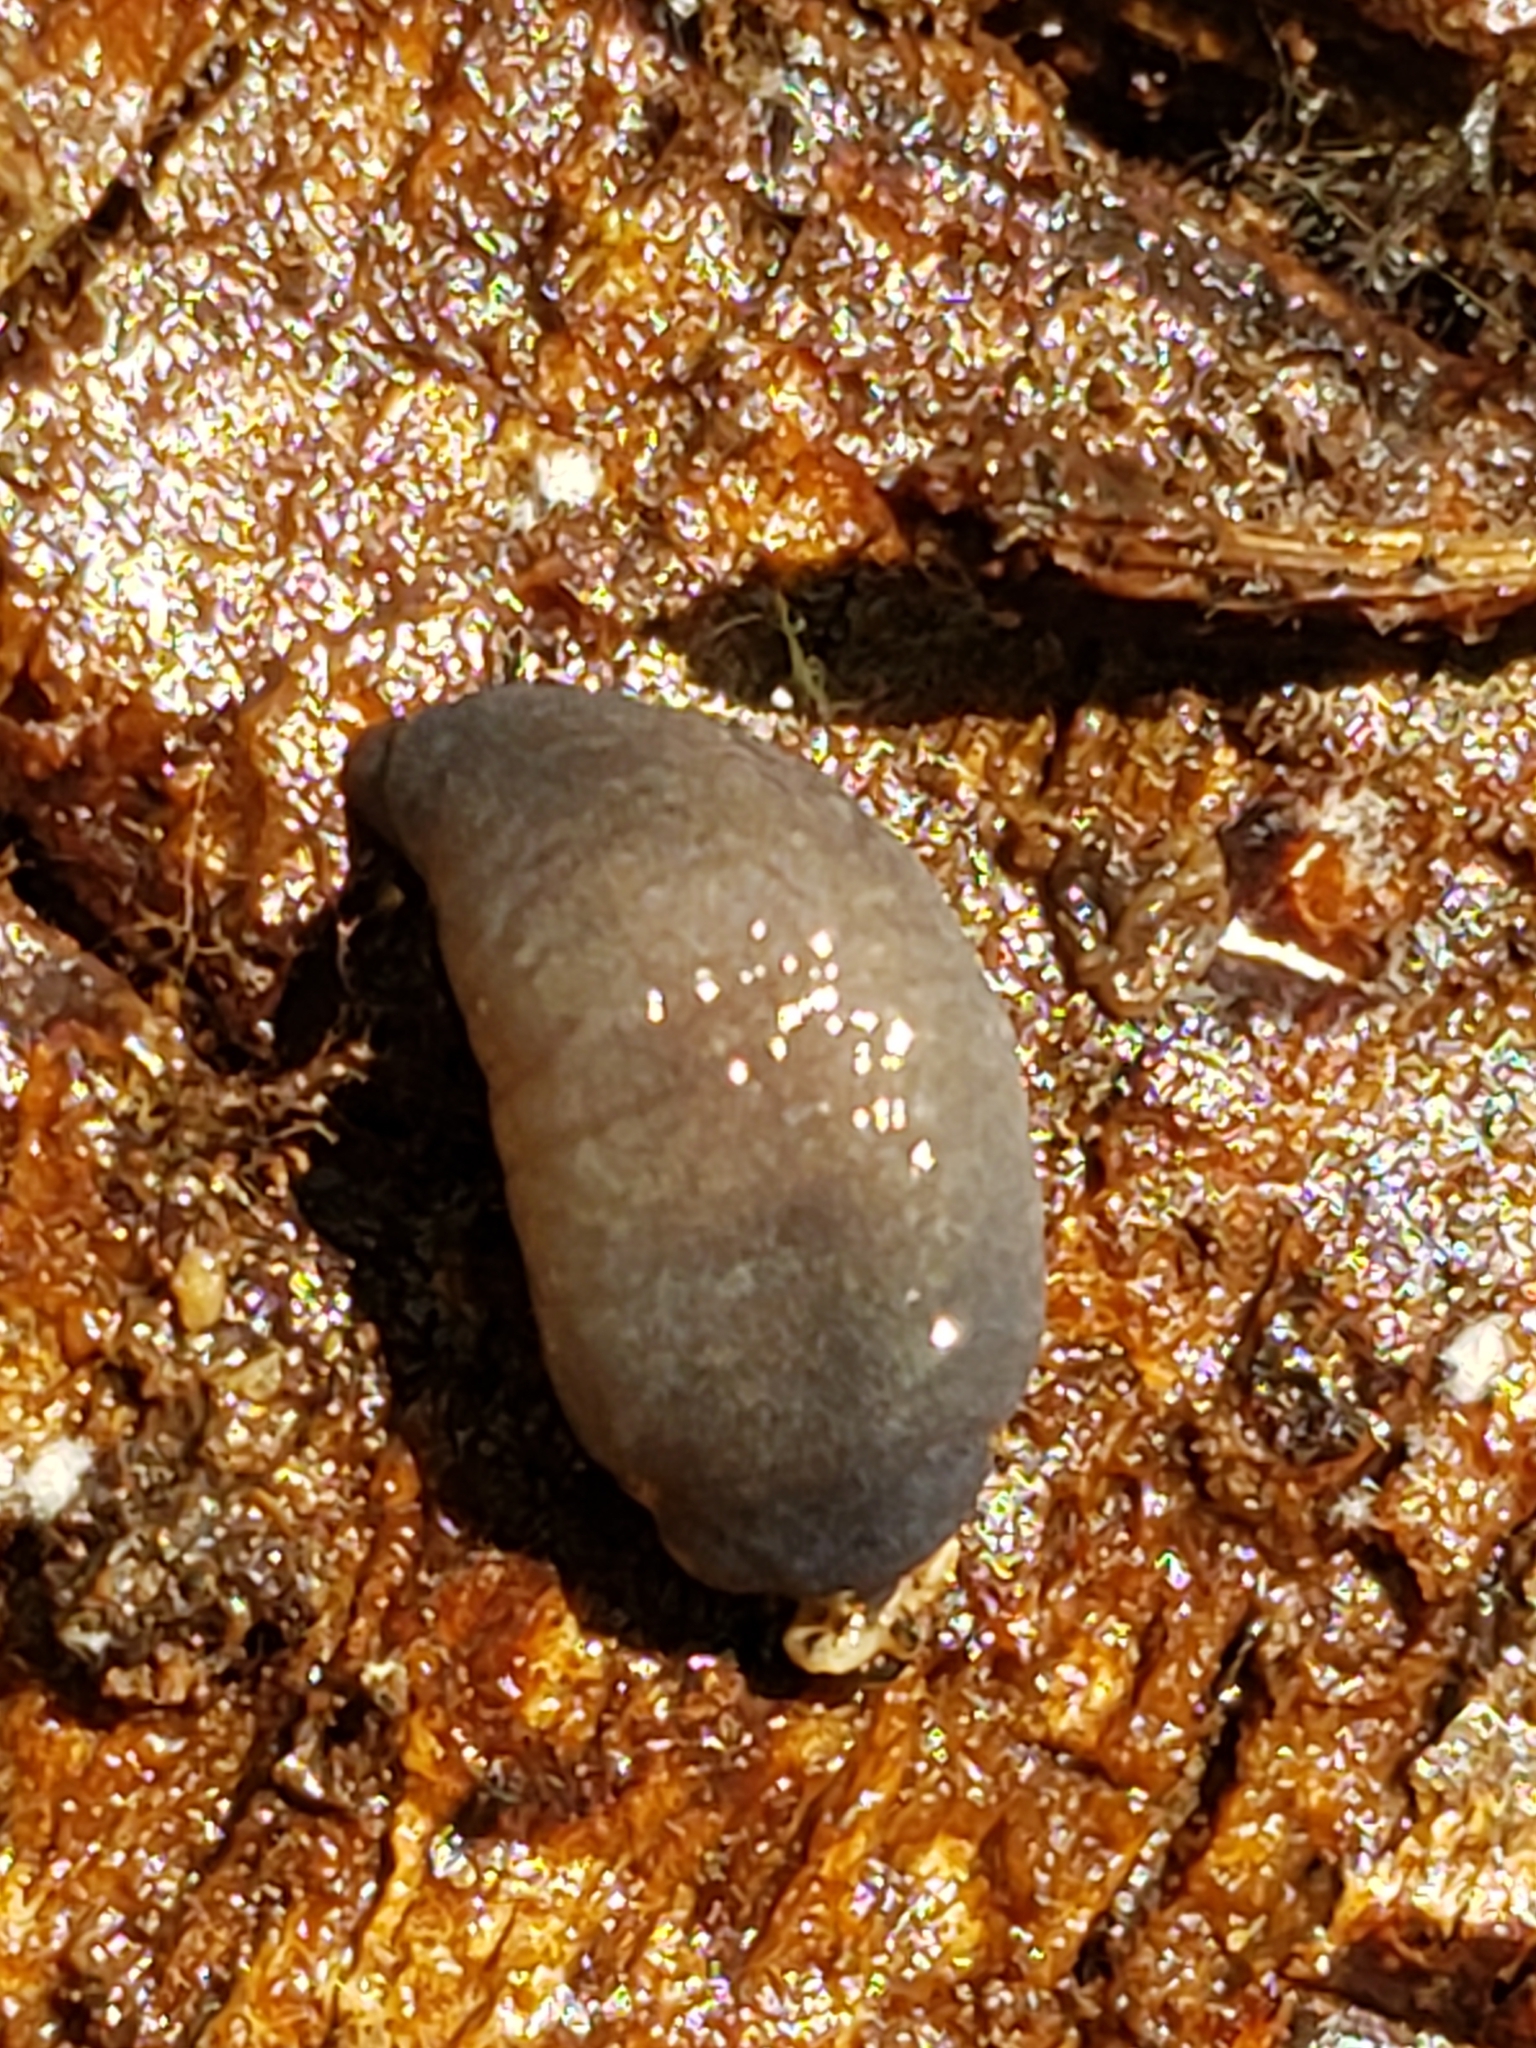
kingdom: Animalia
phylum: Mollusca
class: Gastropoda
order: Stylommatophora
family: Philomycidae
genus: Pallifera
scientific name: Pallifera dorsalis
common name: Pale mantleslug
